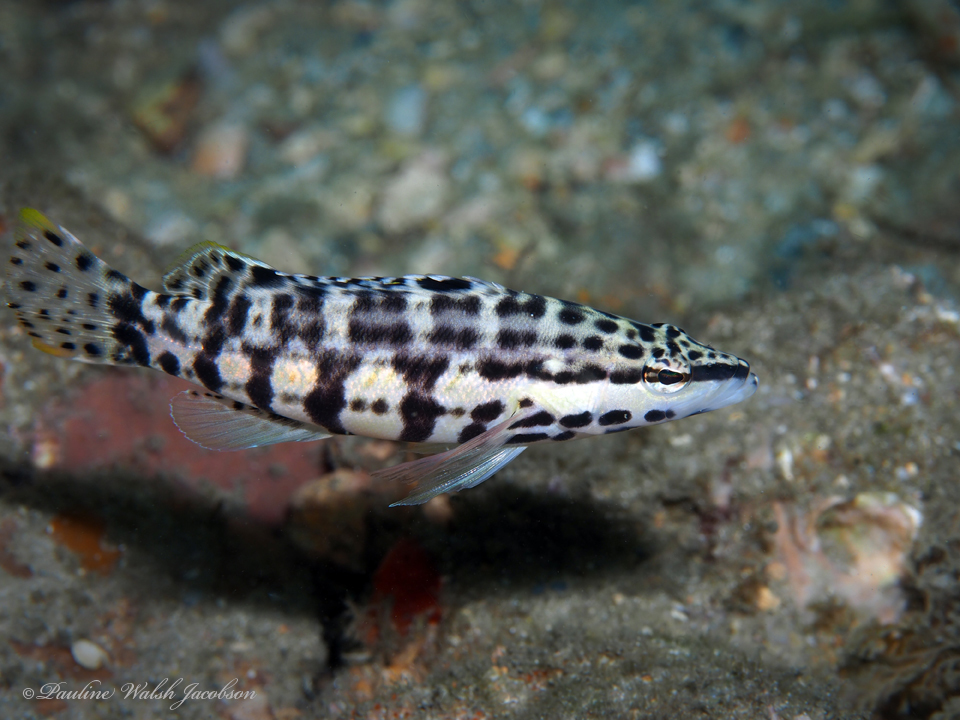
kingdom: Animalia
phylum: Chordata
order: Perciformes
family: Serranidae
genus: Serranus
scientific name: Serranus tigrinus
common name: Harlequin bass
